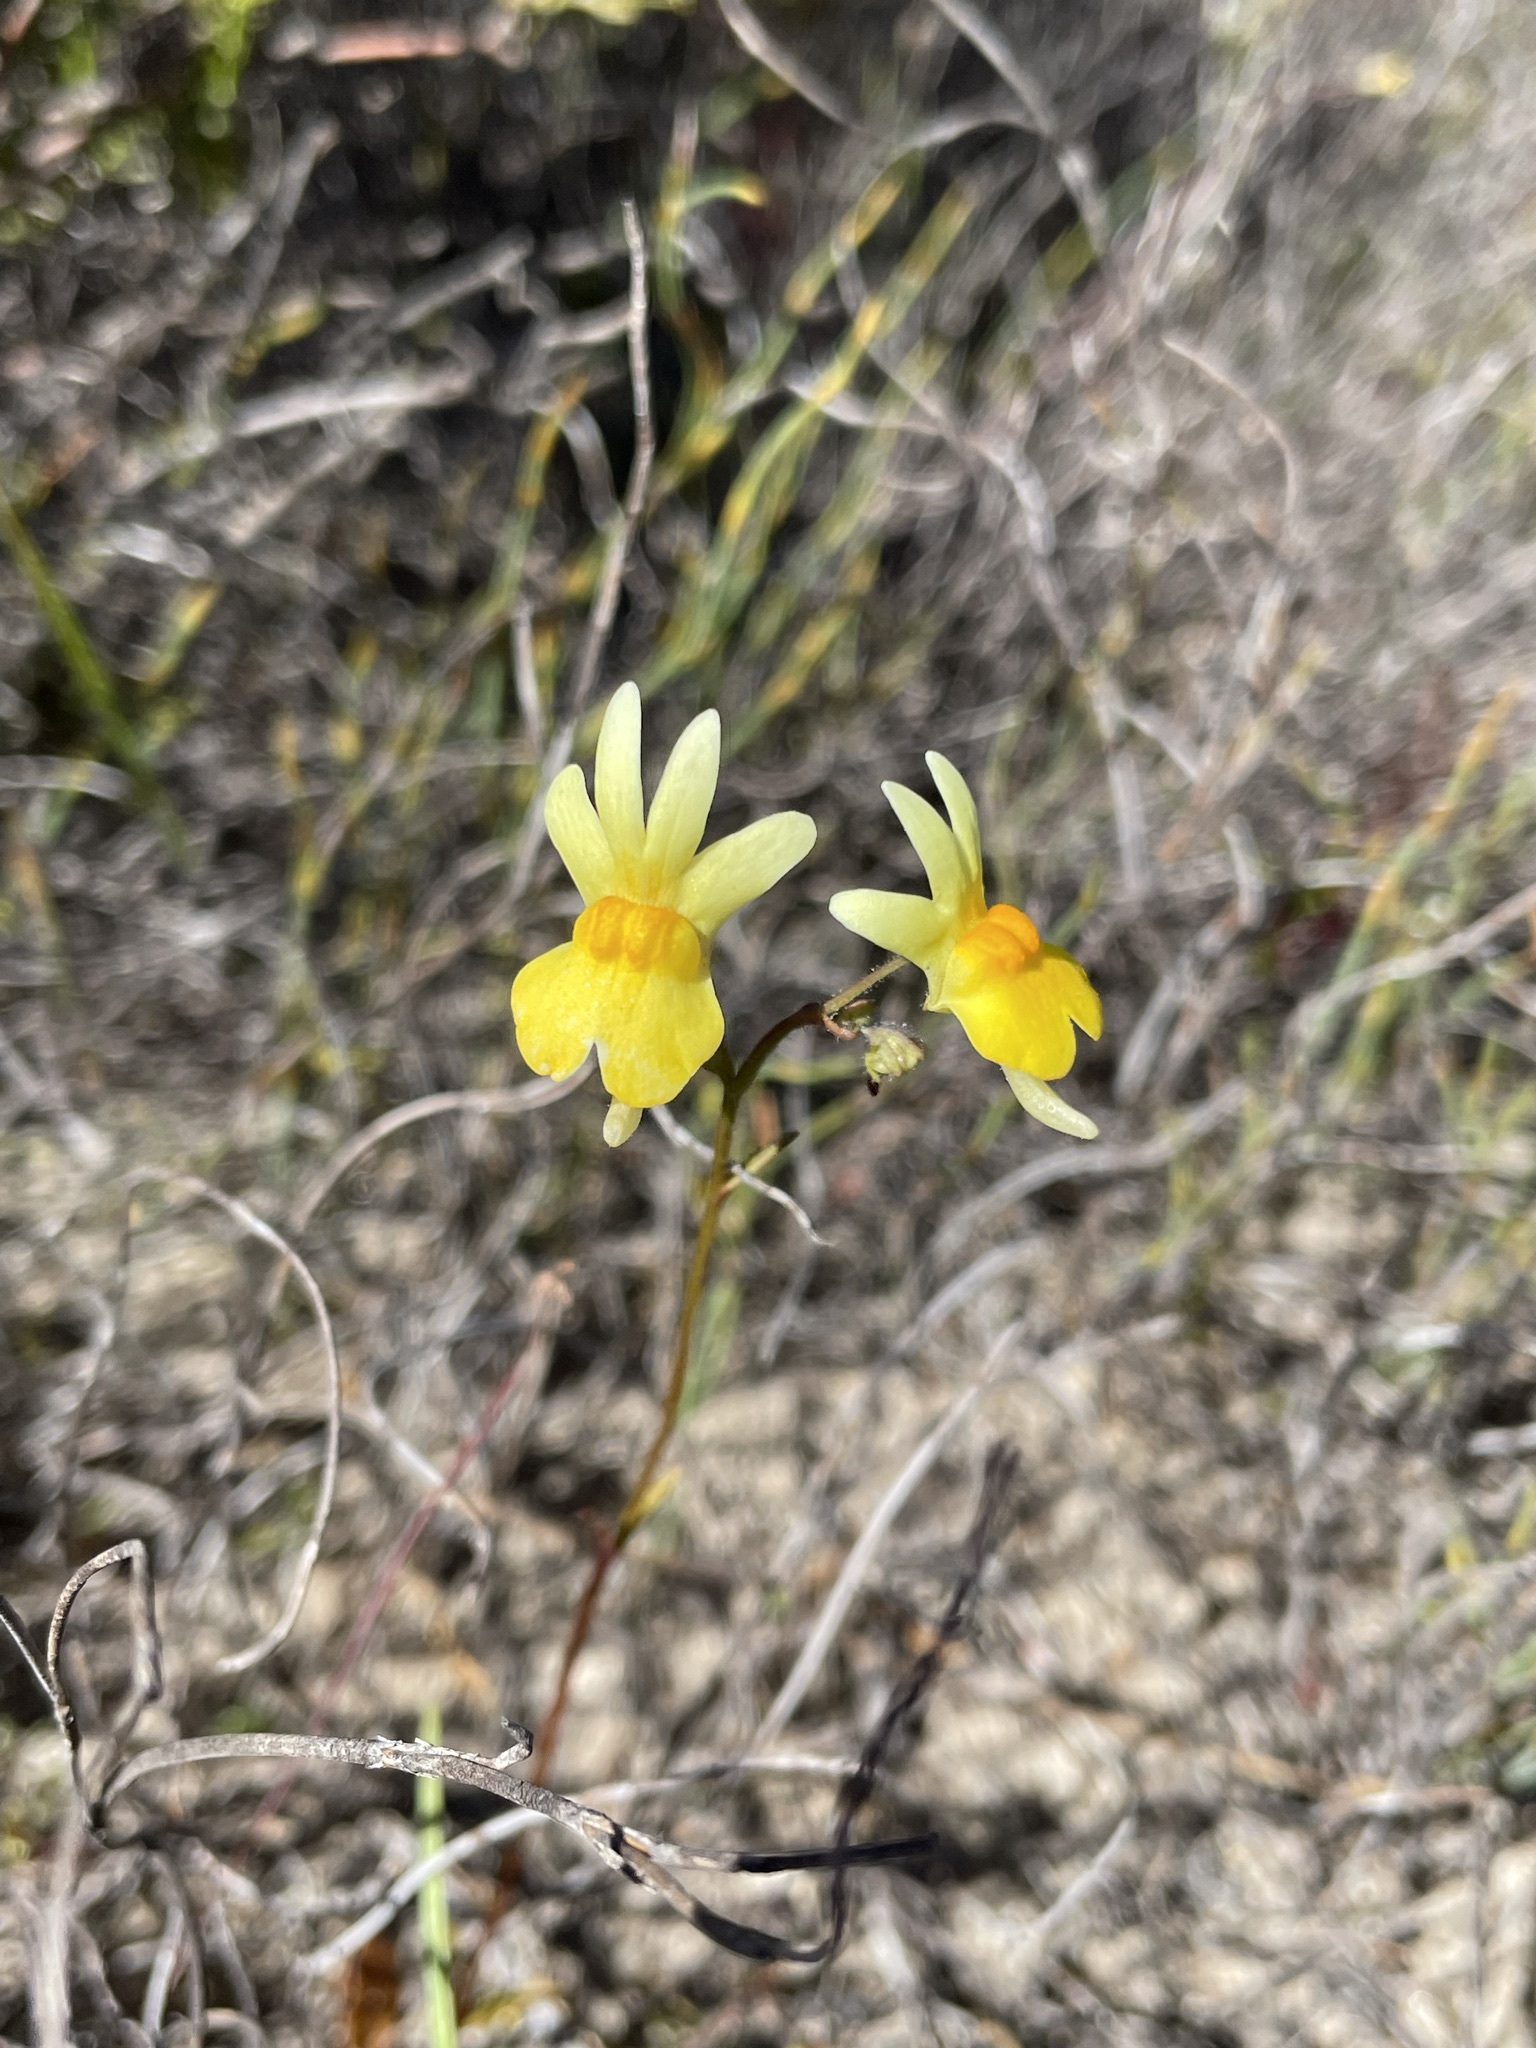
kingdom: Plantae
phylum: Tracheophyta
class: Magnoliopsida
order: Lamiales
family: Scrophulariaceae
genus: Nemesia
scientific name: Nemesia ligulata
